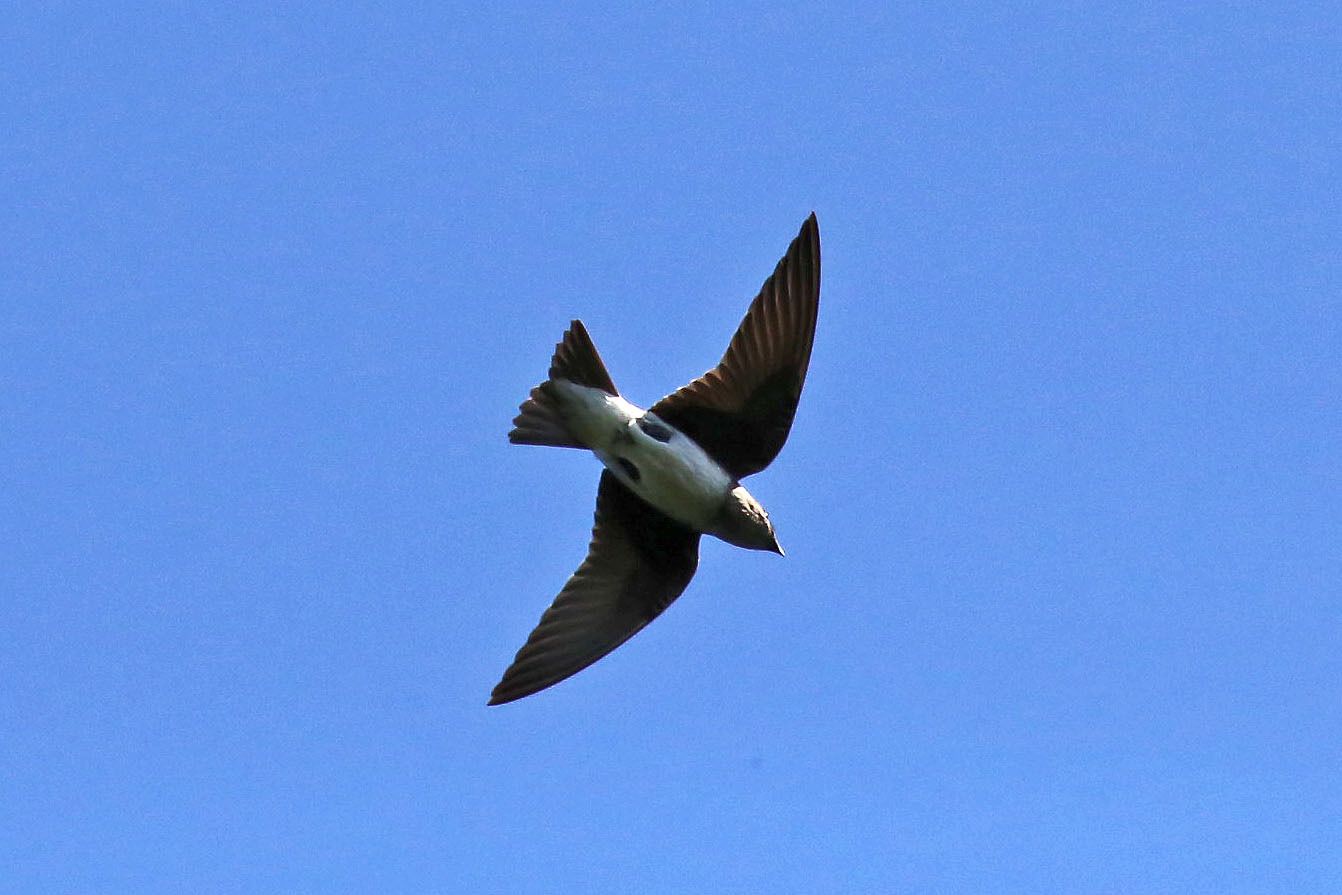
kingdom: Animalia
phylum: Chordata
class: Aves
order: Passeriformes
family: Hirundinidae
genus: Progne
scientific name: Progne subis
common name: Purple martin
